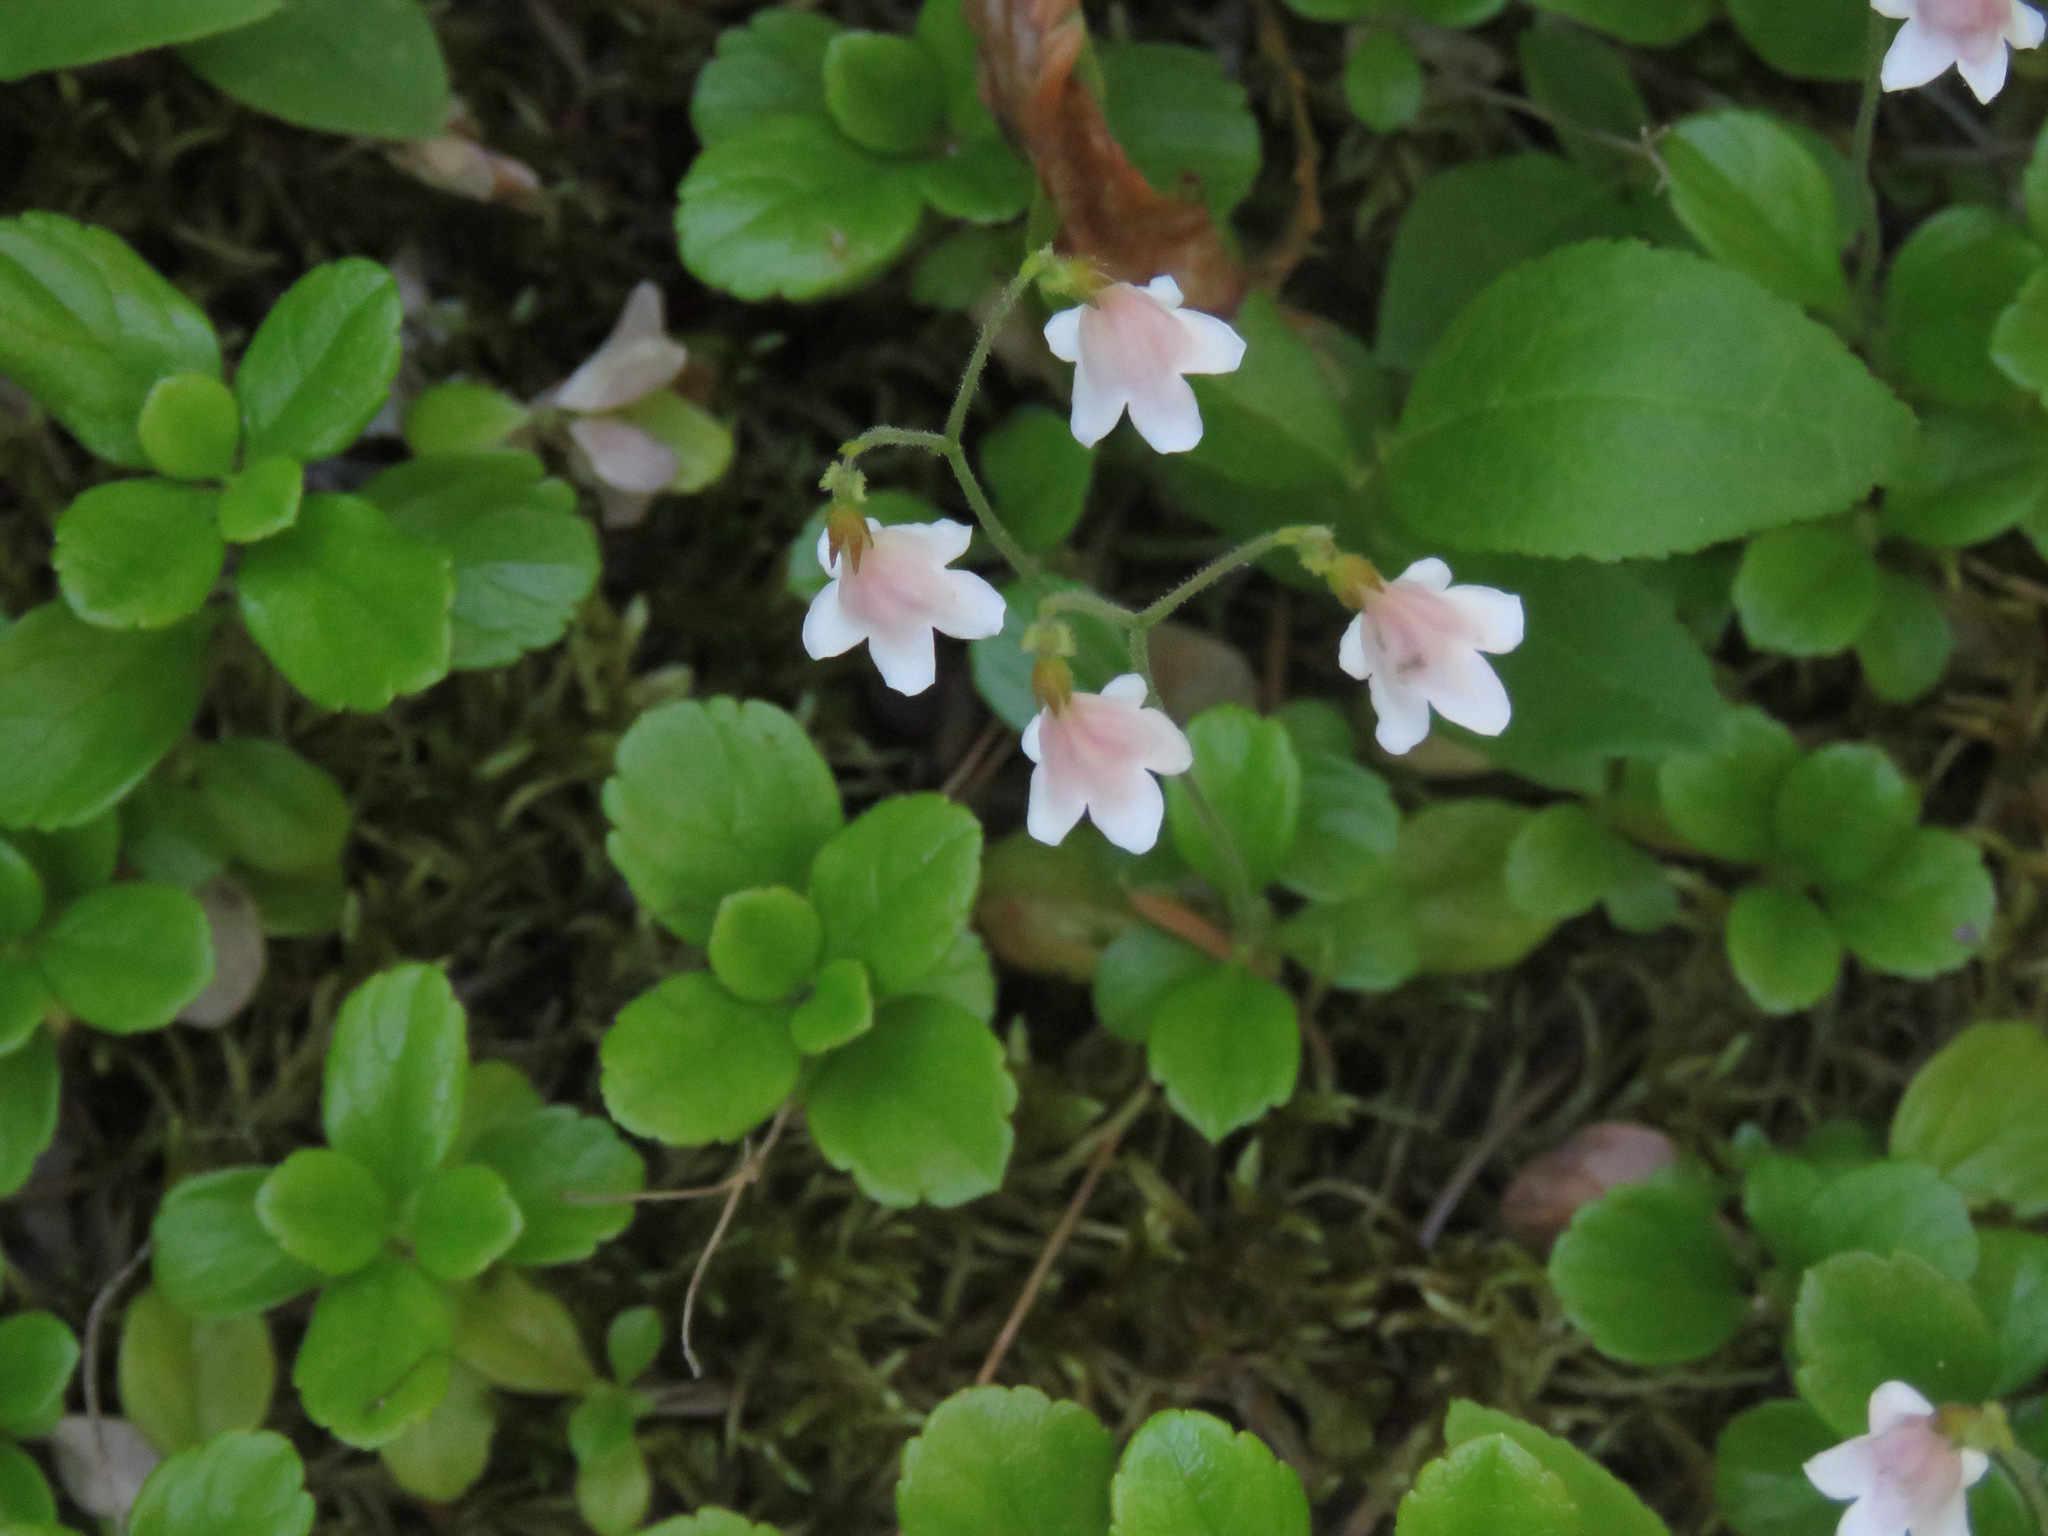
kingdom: Plantae
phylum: Tracheophyta
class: Magnoliopsida
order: Dipsacales
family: Caprifoliaceae
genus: Linnaea
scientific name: Linnaea borealis
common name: Twinflower
